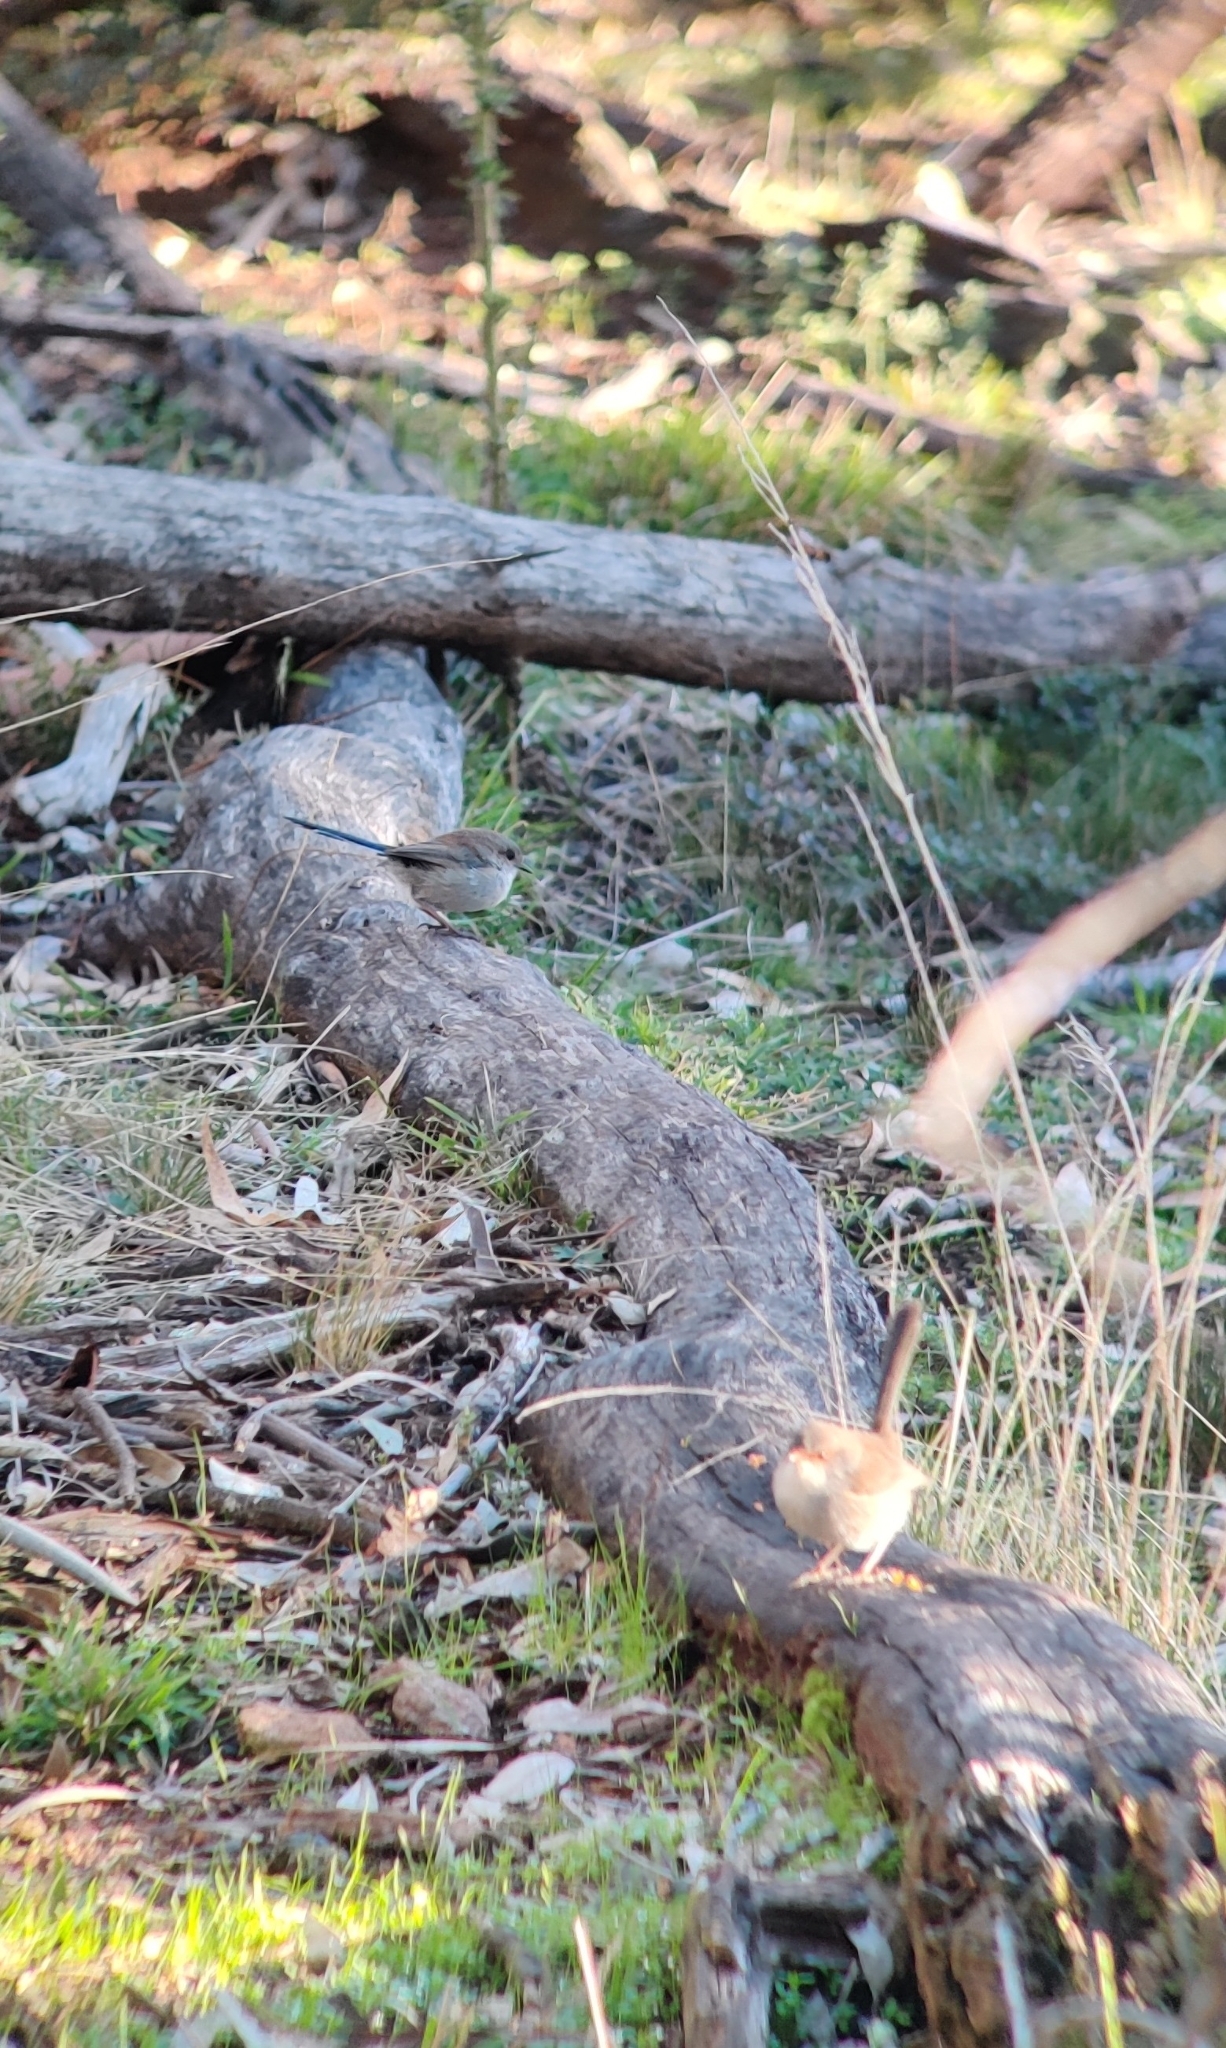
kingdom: Animalia
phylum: Chordata
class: Aves
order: Passeriformes
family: Maluridae
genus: Malurus
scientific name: Malurus cyaneus
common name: Superb fairywren
